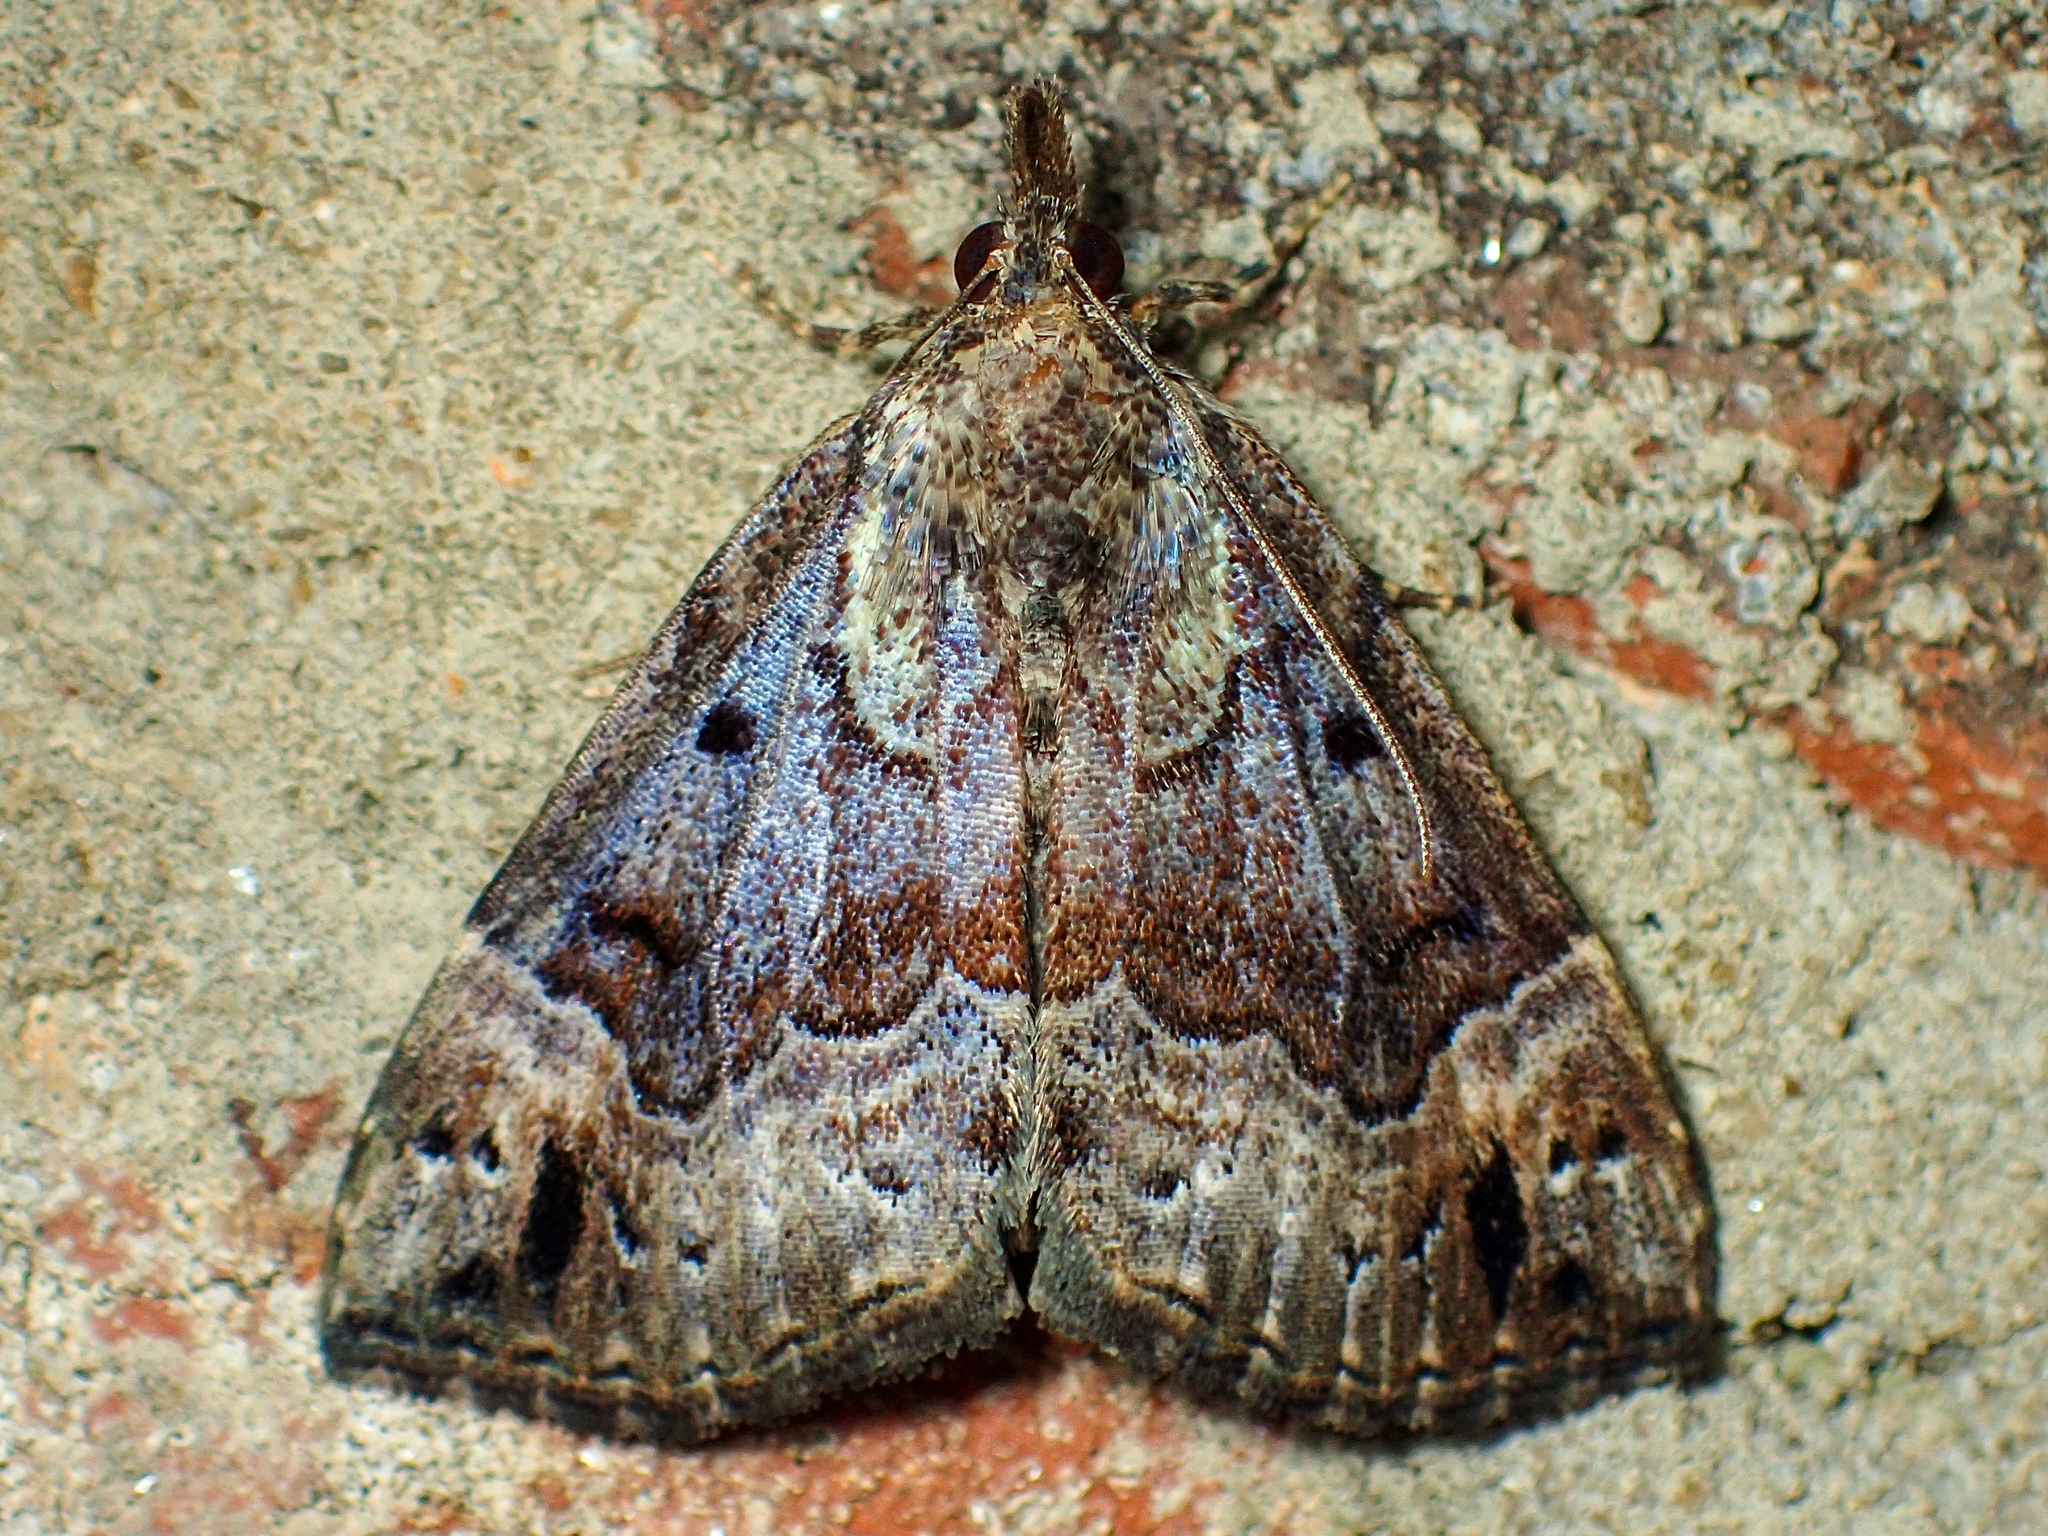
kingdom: Animalia
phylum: Arthropoda
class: Insecta
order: Lepidoptera
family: Erebidae
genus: Hypena
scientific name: Hypena palparia
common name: Mottled bomolocha moth
